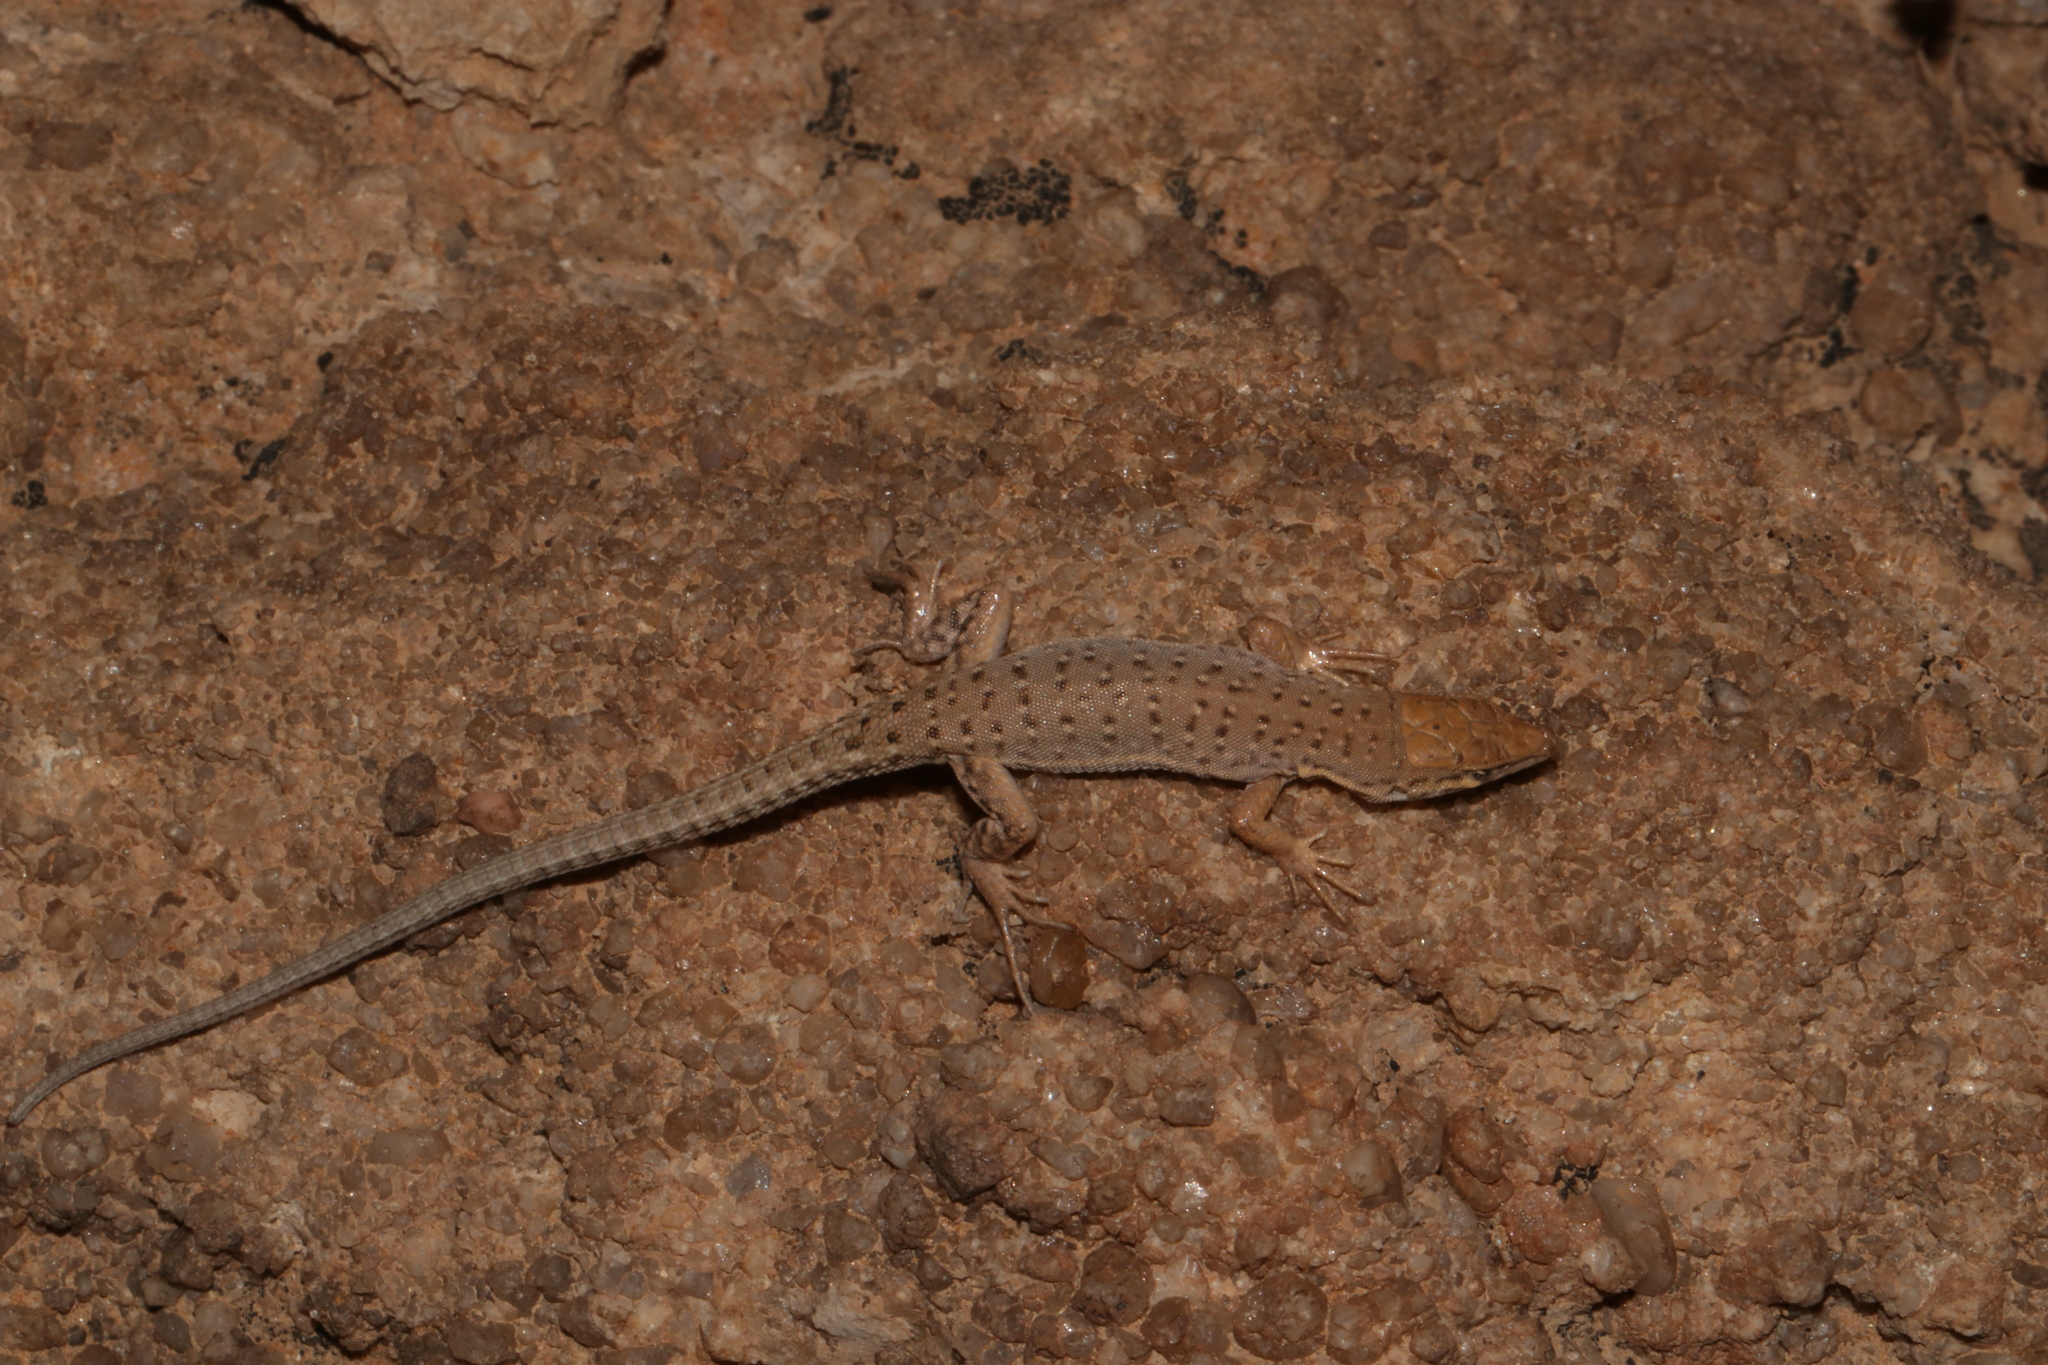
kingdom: Animalia
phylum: Chordata
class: Squamata
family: Lacertidae
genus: Mesalina
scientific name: Mesalina guttulata
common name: Desert lacerta
